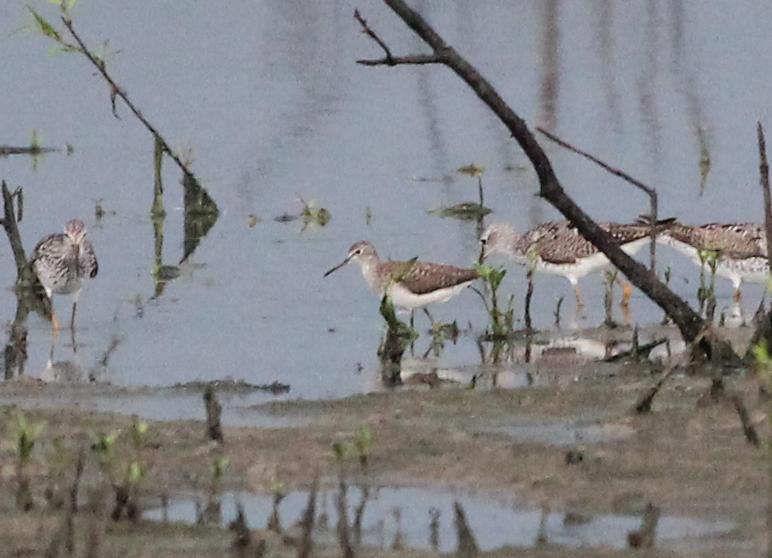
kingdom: Animalia
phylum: Chordata
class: Aves
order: Charadriiformes
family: Scolopacidae
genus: Tringa
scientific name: Tringa solitaria
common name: Solitary sandpiper
